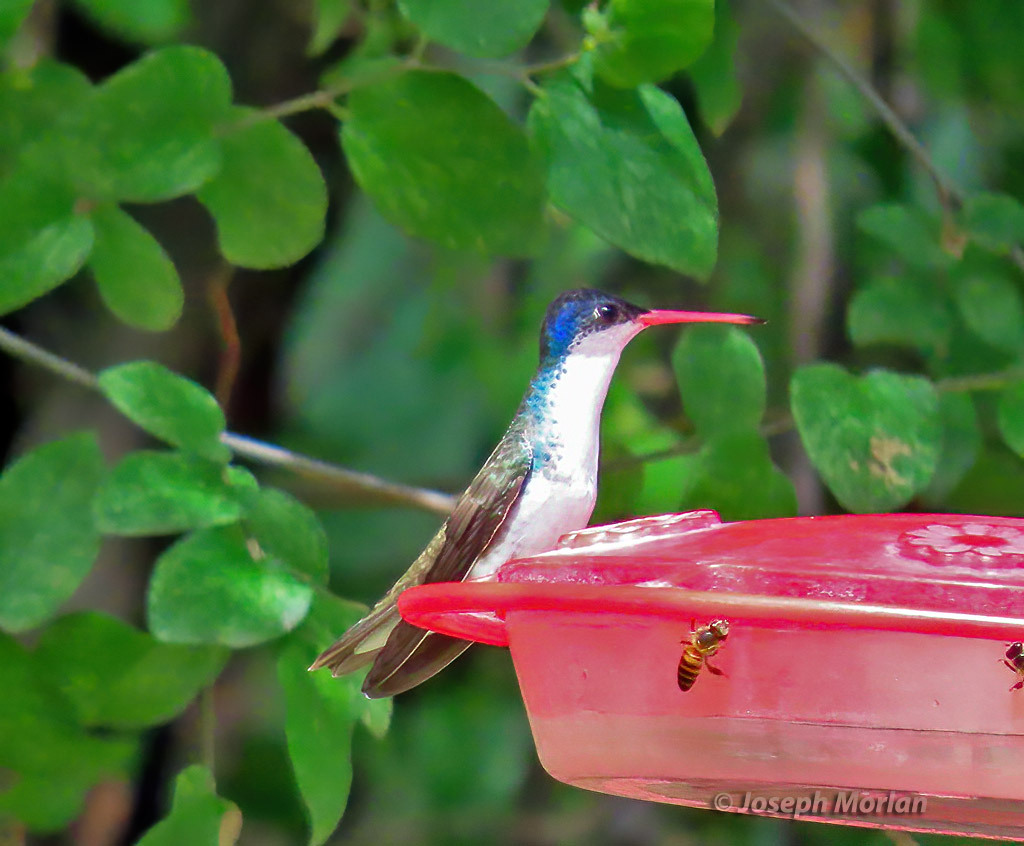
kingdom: Animalia
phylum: Chordata
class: Aves
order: Apodiformes
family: Trochilidae
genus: Leucolia
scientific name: Leucolia violiceps
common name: Violet-crowned hummingbird
